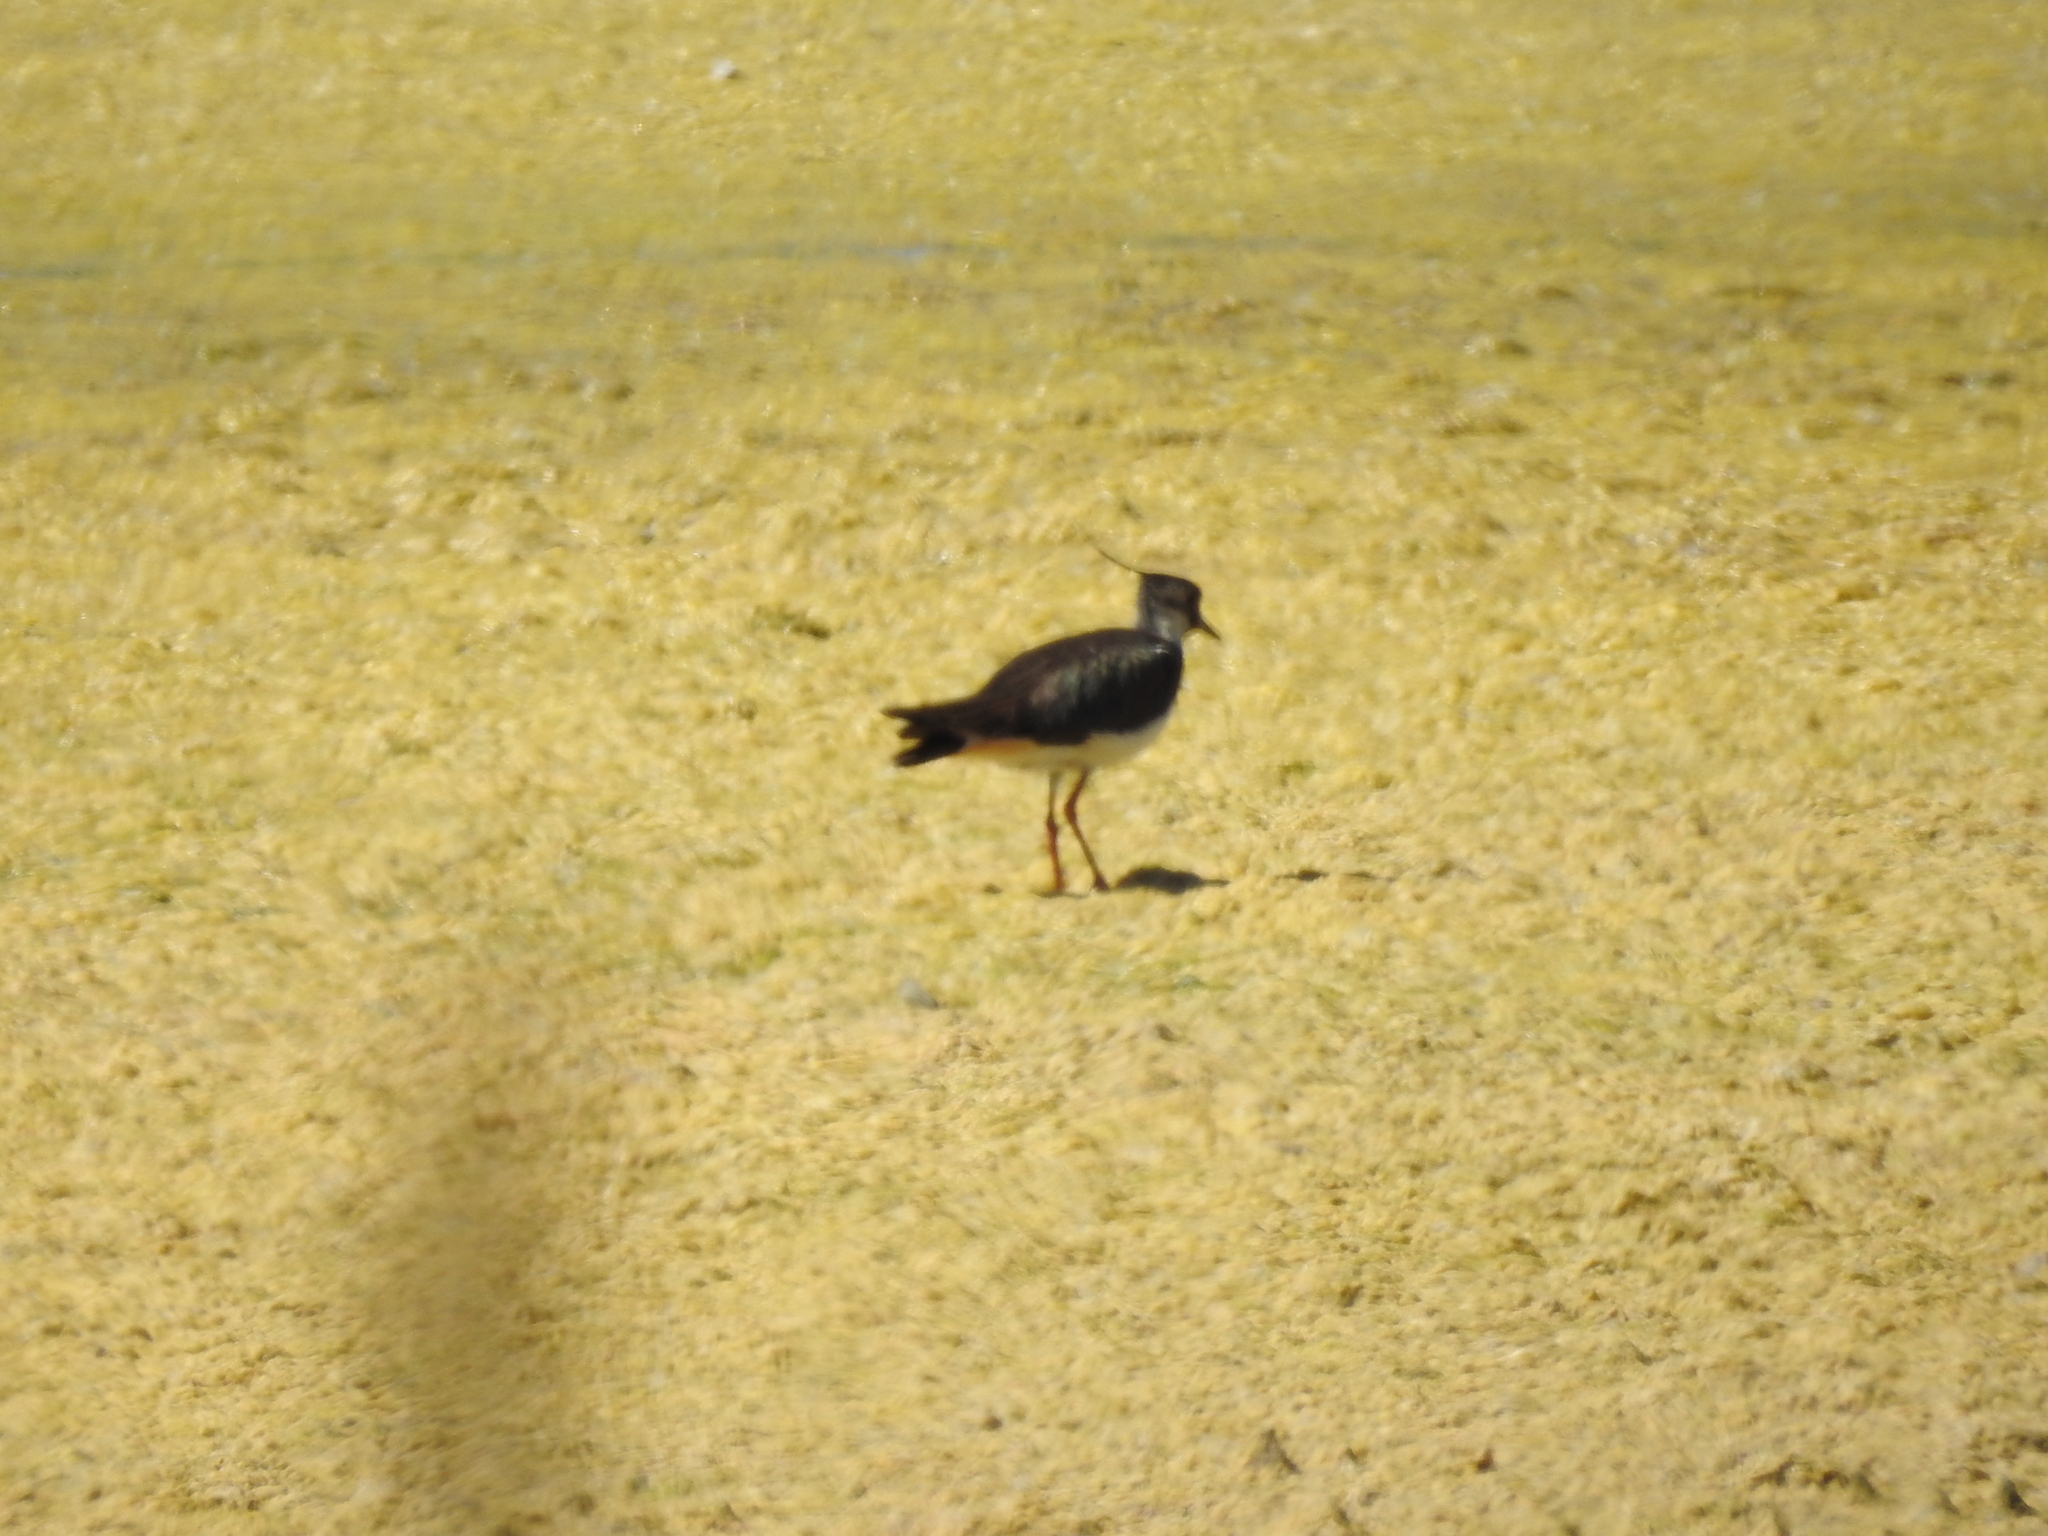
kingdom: Animalia
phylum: Chordata
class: Aves
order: Charadriiformes
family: Charadriidae
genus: Vanellus
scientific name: Vanellus vanellus
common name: Northern lapwing
